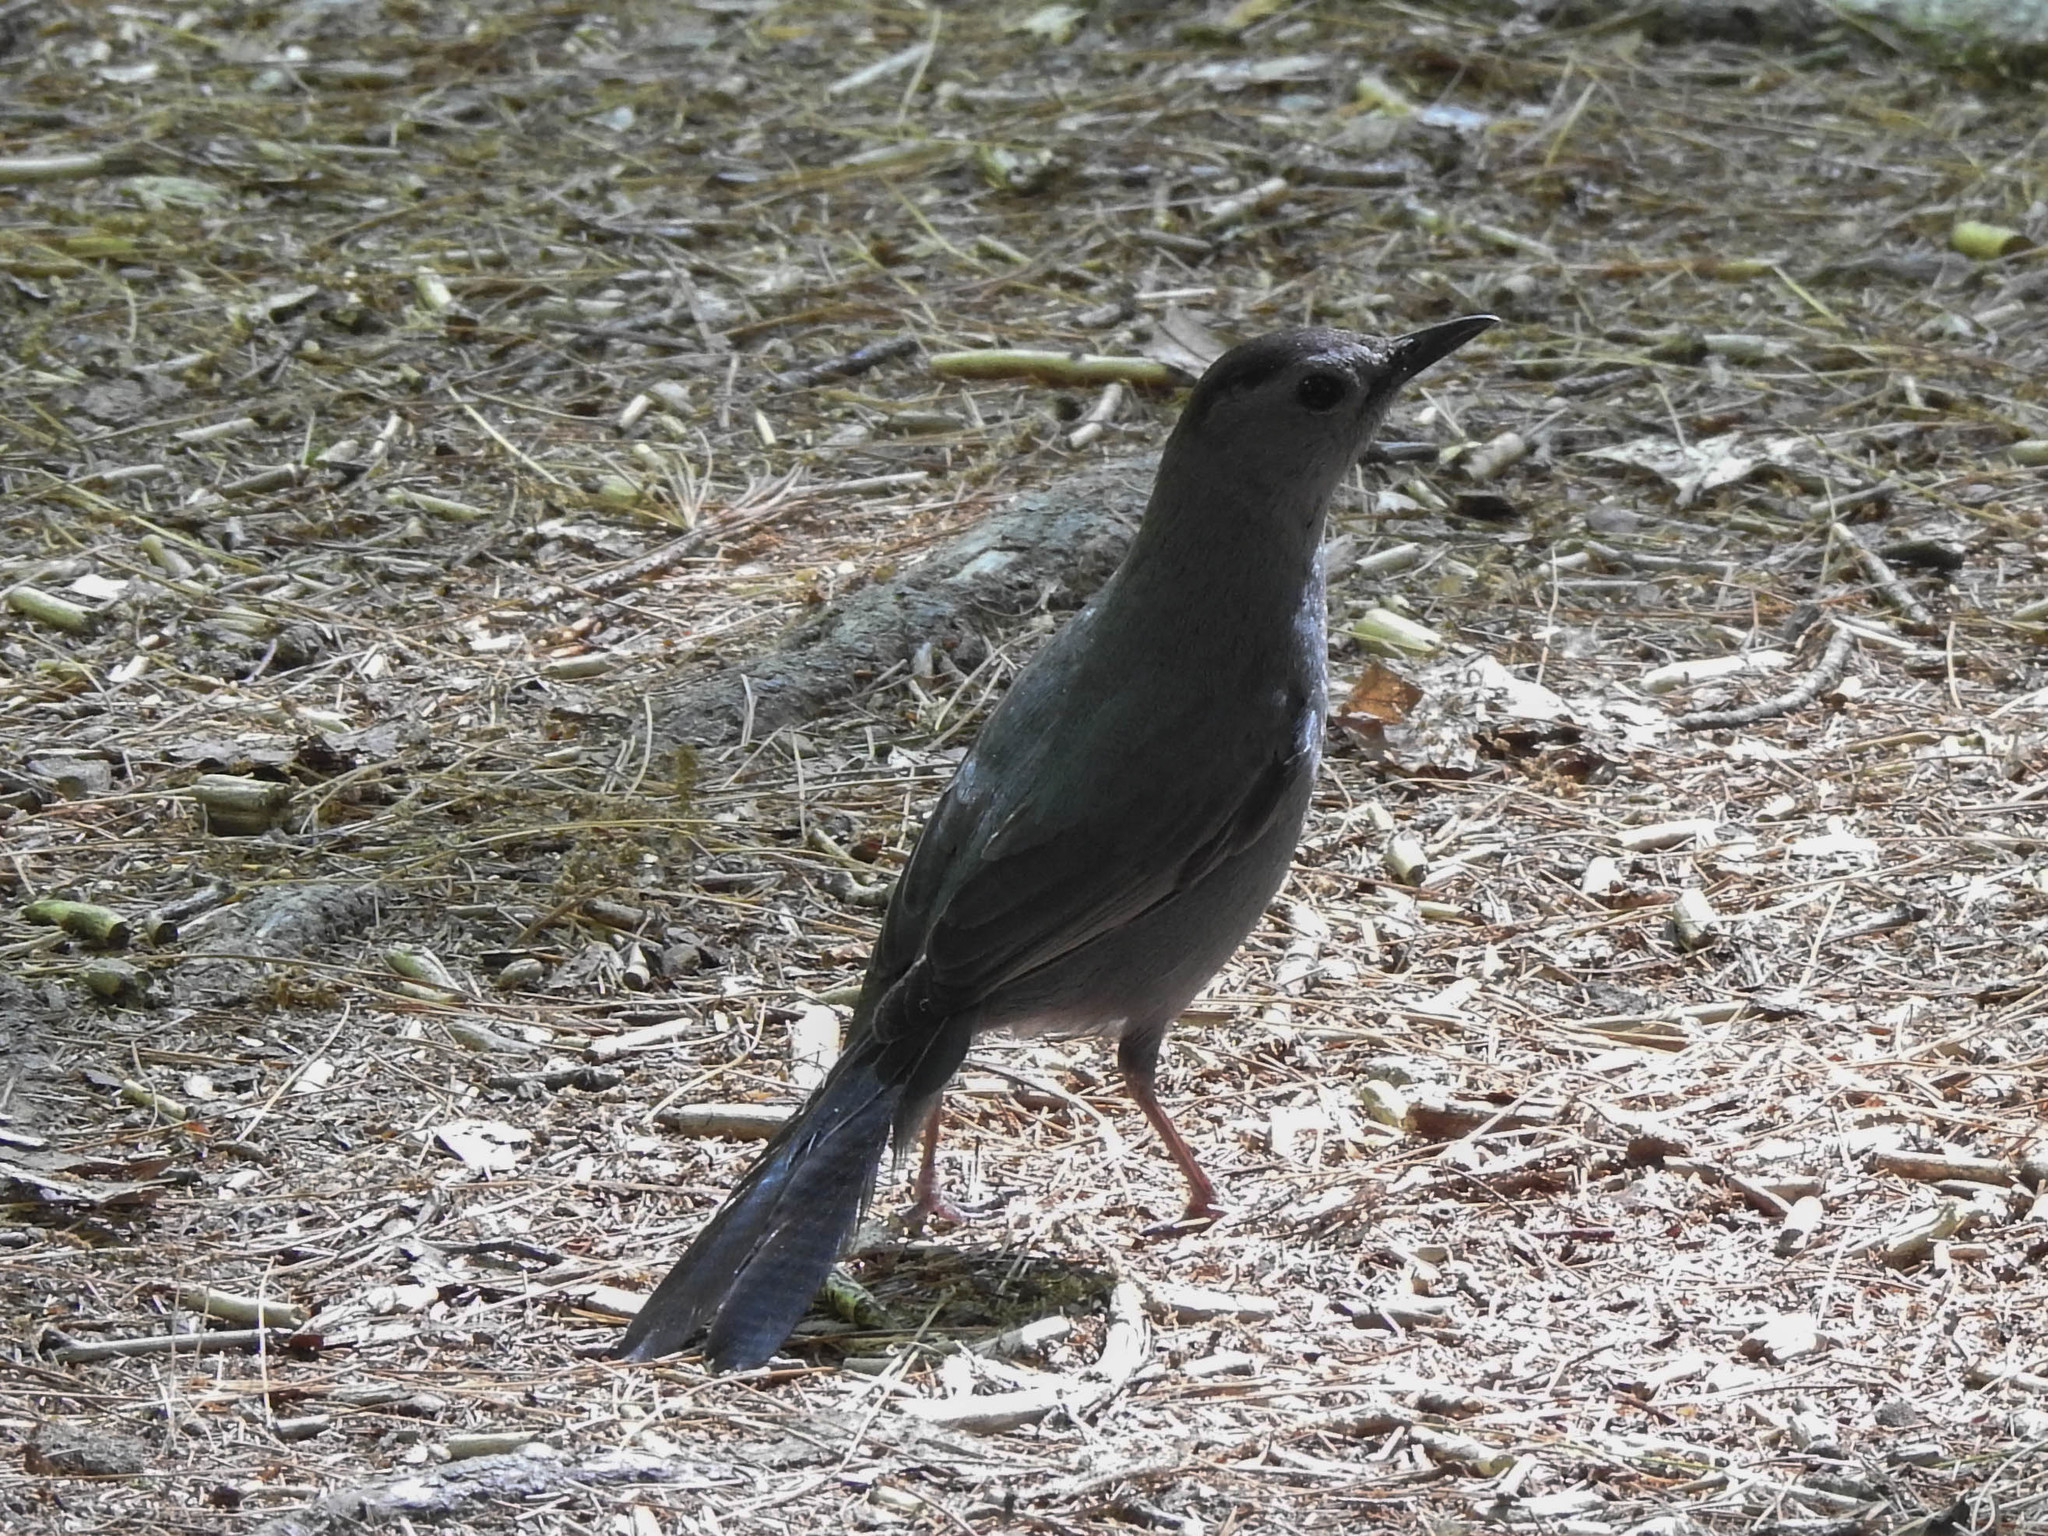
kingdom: Animalia
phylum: Chordata
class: Aves
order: Passeriformes
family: Mimidae
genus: Dumetella
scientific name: Dumetella carolinensis
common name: Gray catbird
